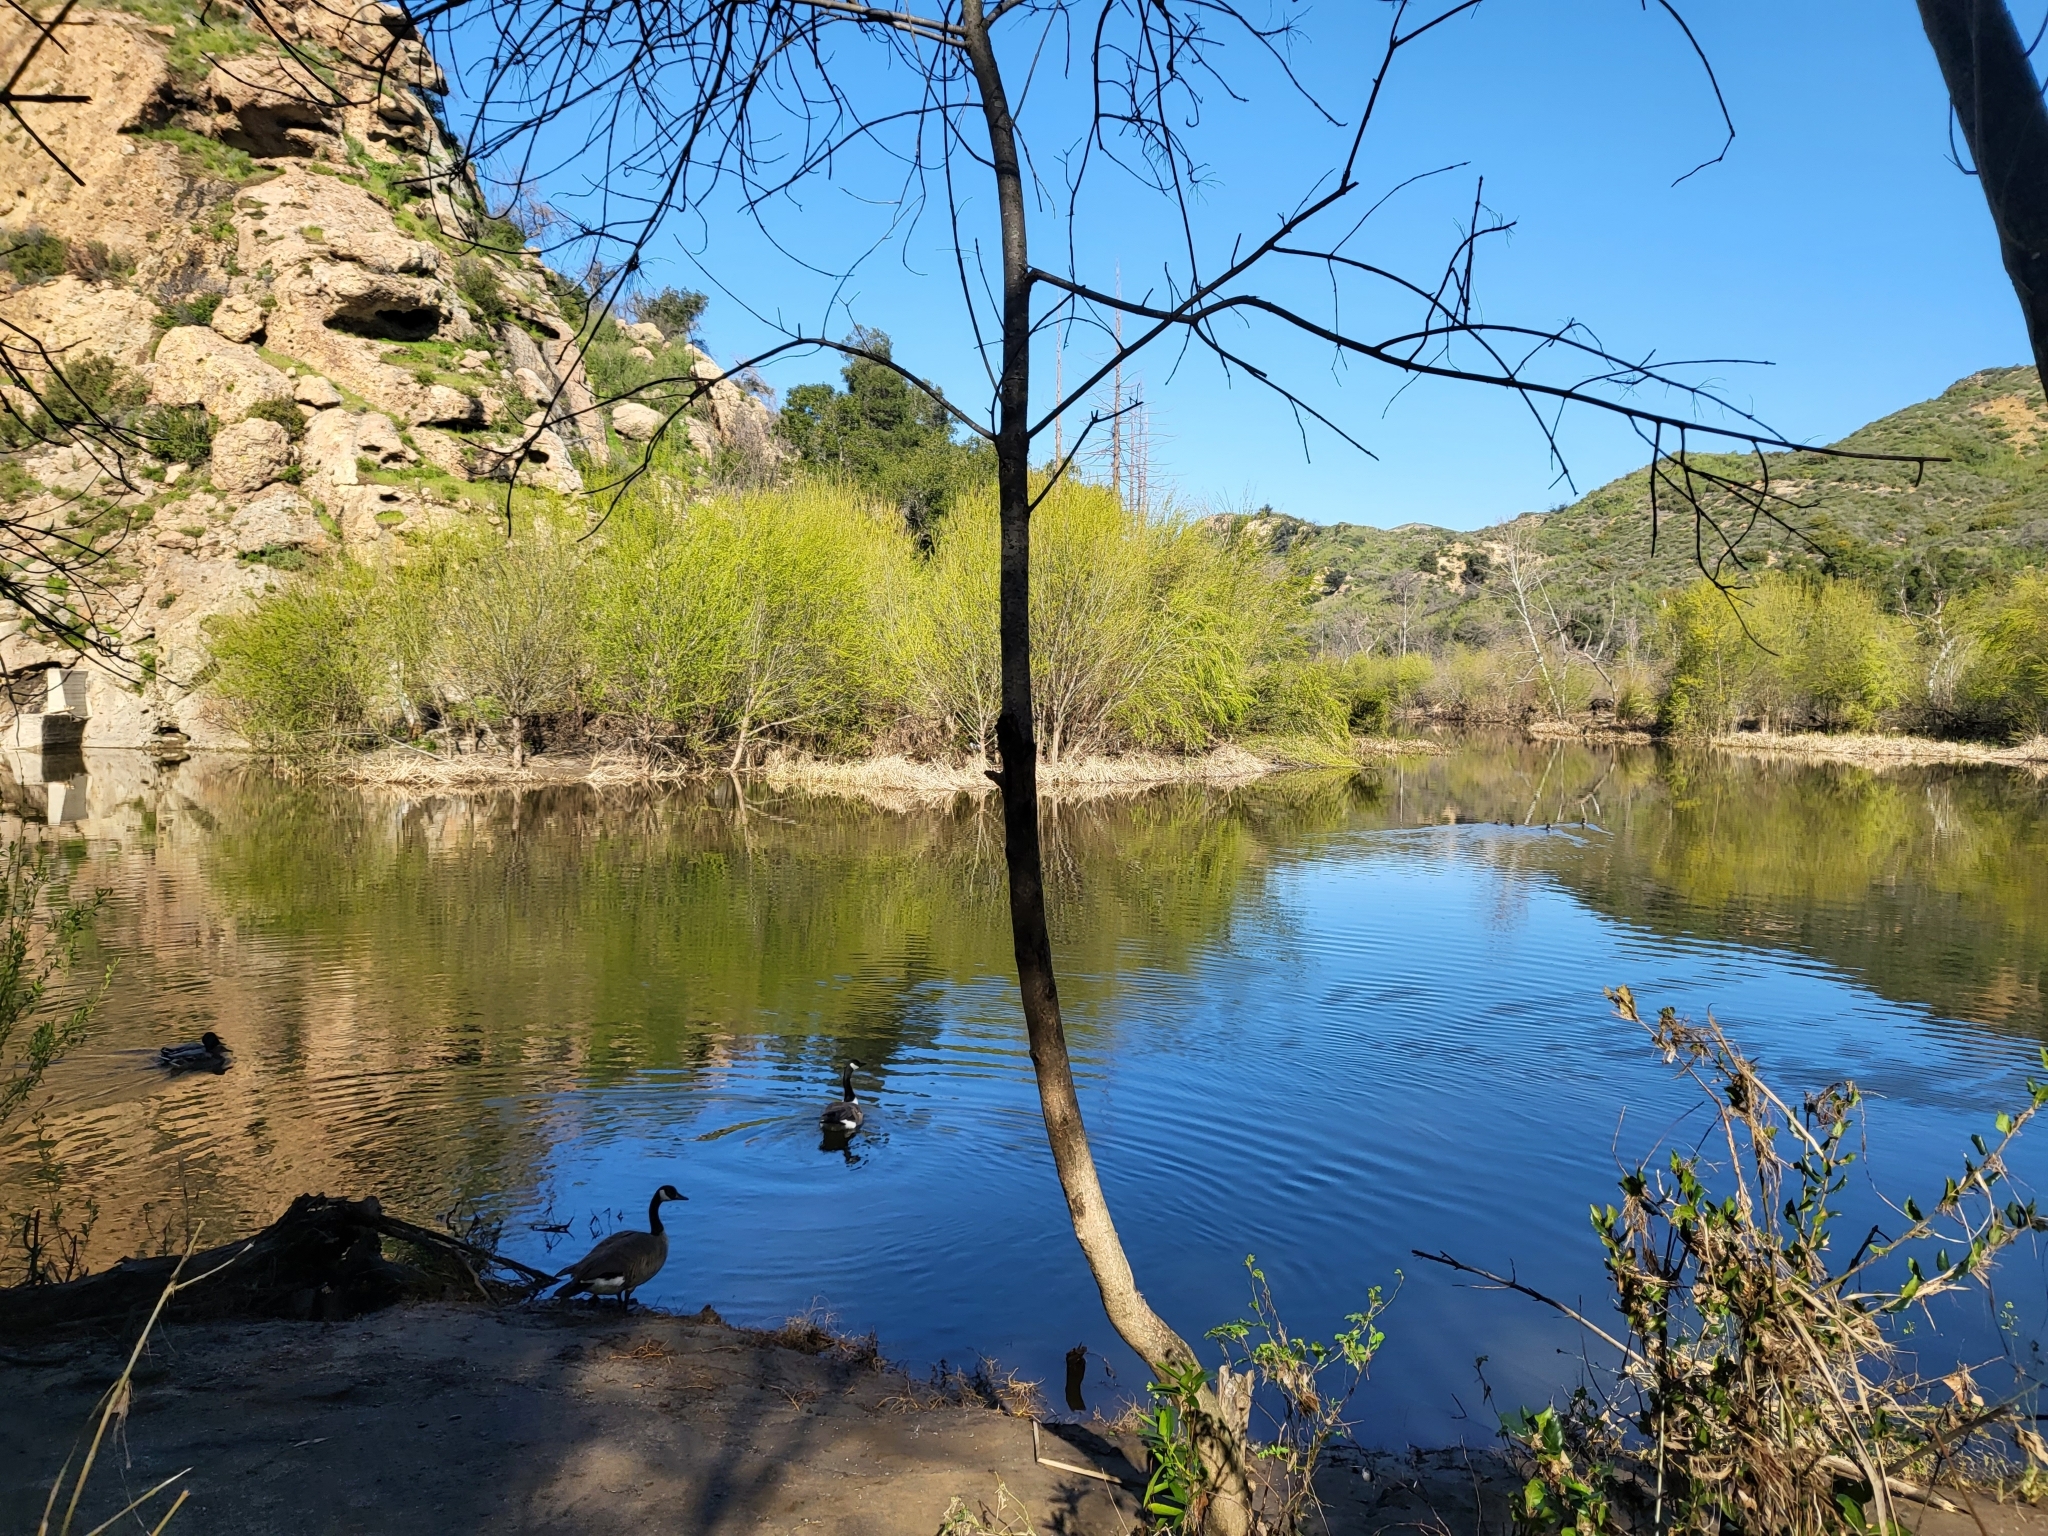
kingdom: Animalia
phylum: Chordata
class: Aves
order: Anseriformes
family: Anatidae
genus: Branta
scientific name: Branta canadensis
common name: Canada goose
